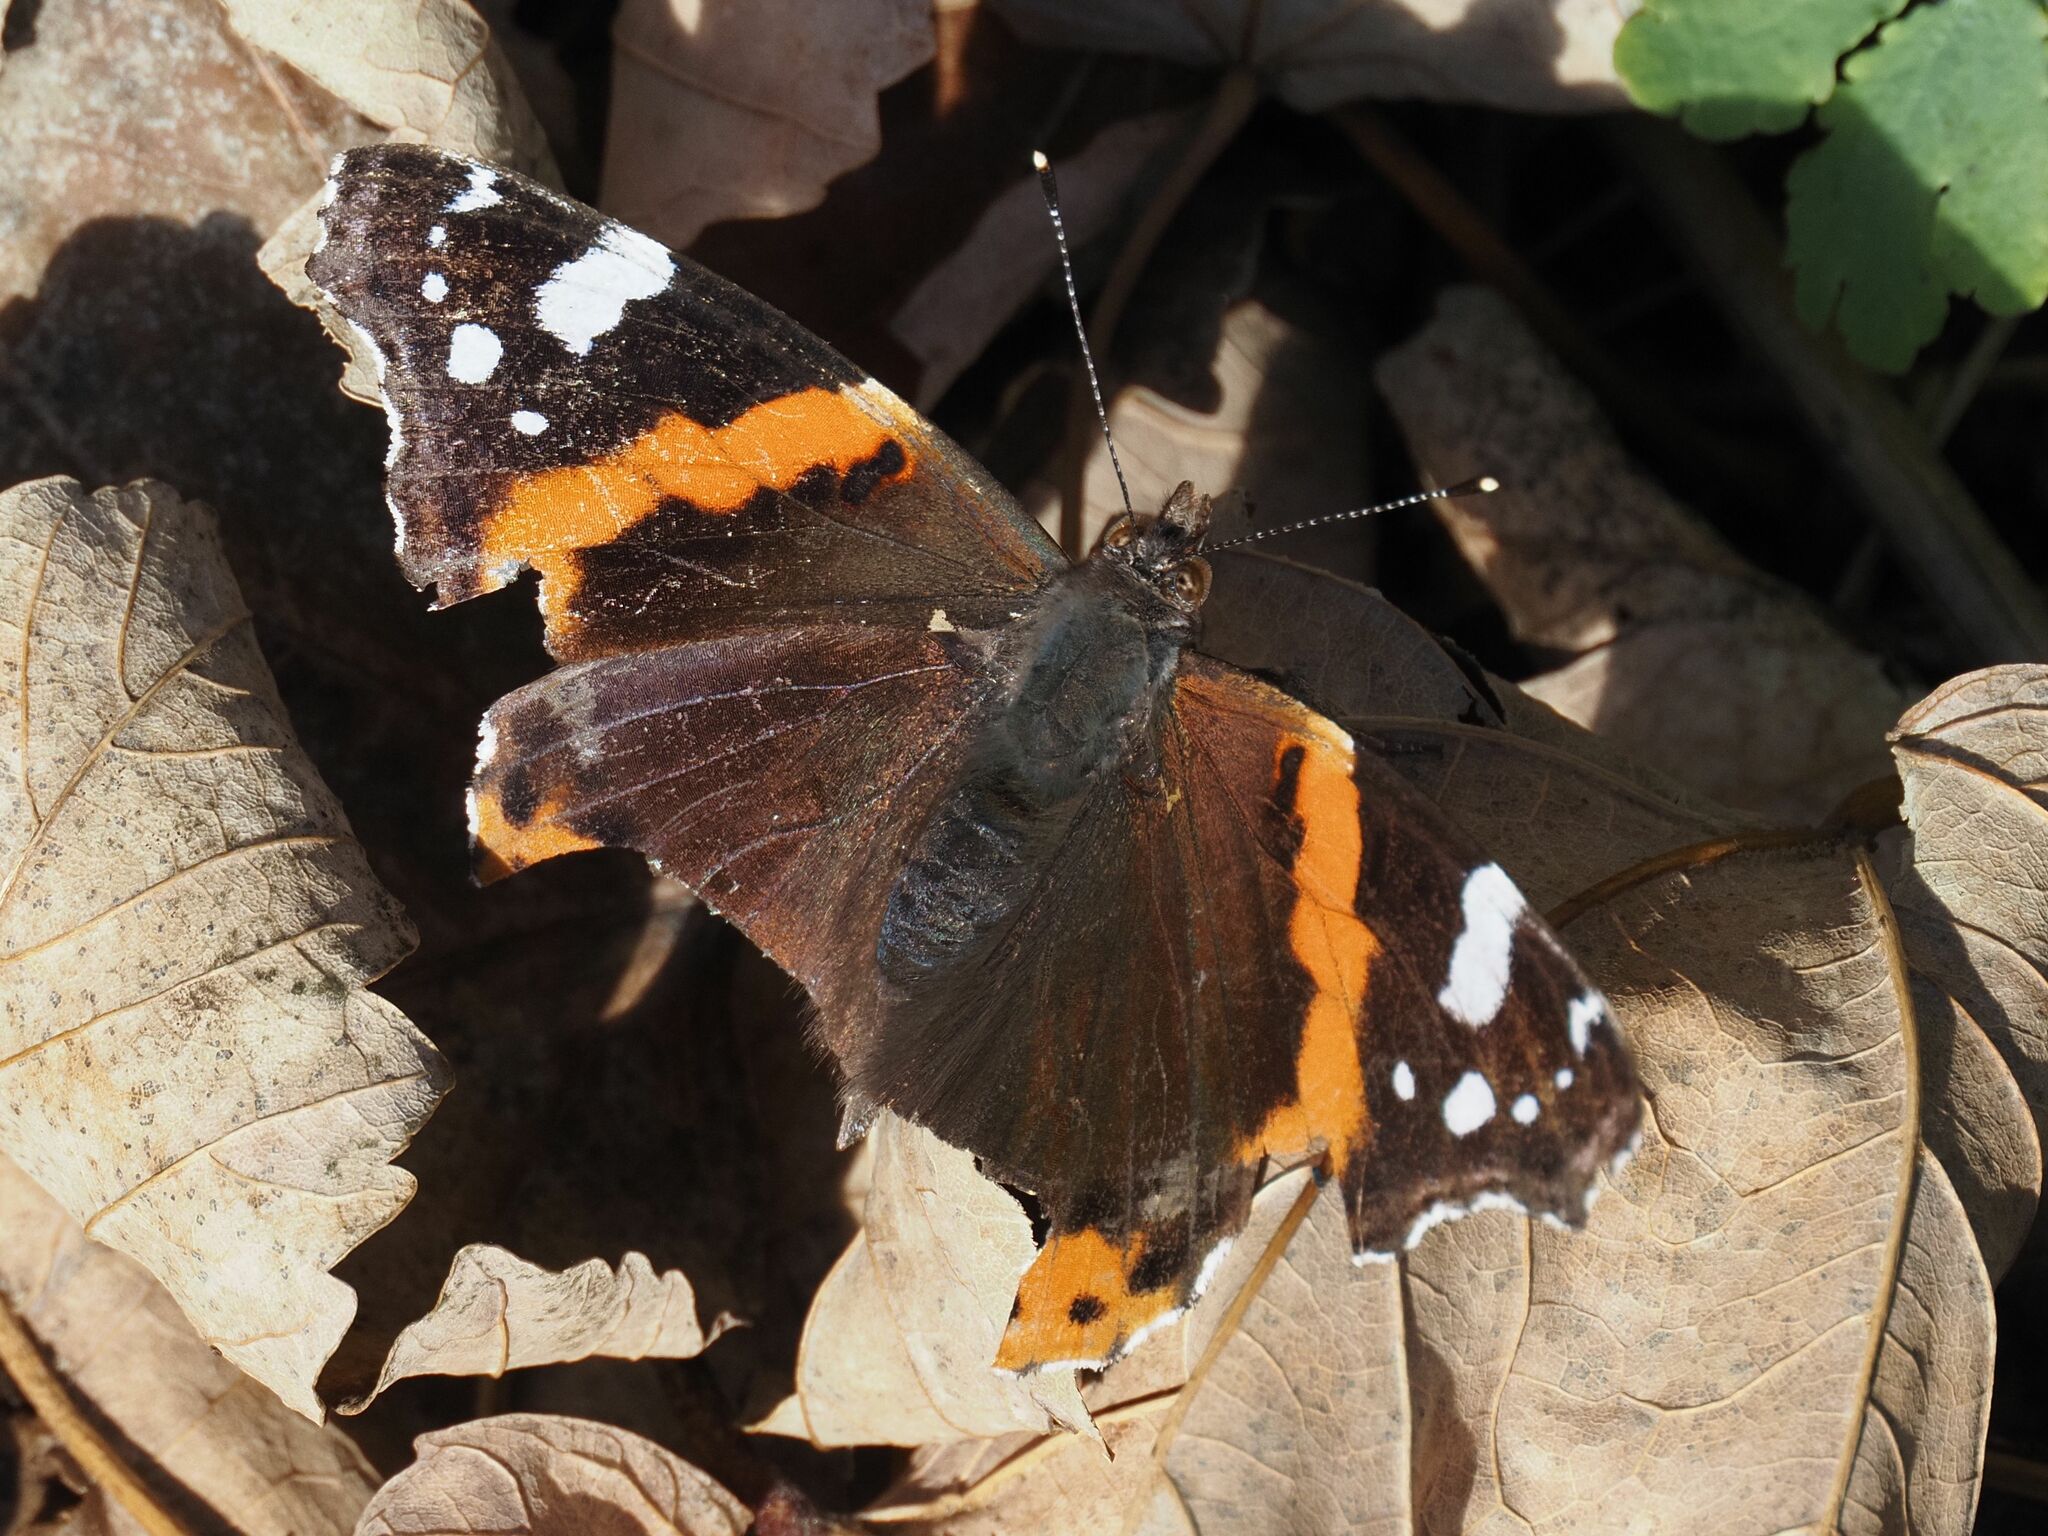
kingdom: Animalia
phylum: Arthropoda
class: Insecta
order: Lepidoptera
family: Nymphalidae
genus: Vanessa
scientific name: Vanessa atalanta
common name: Red admiral
